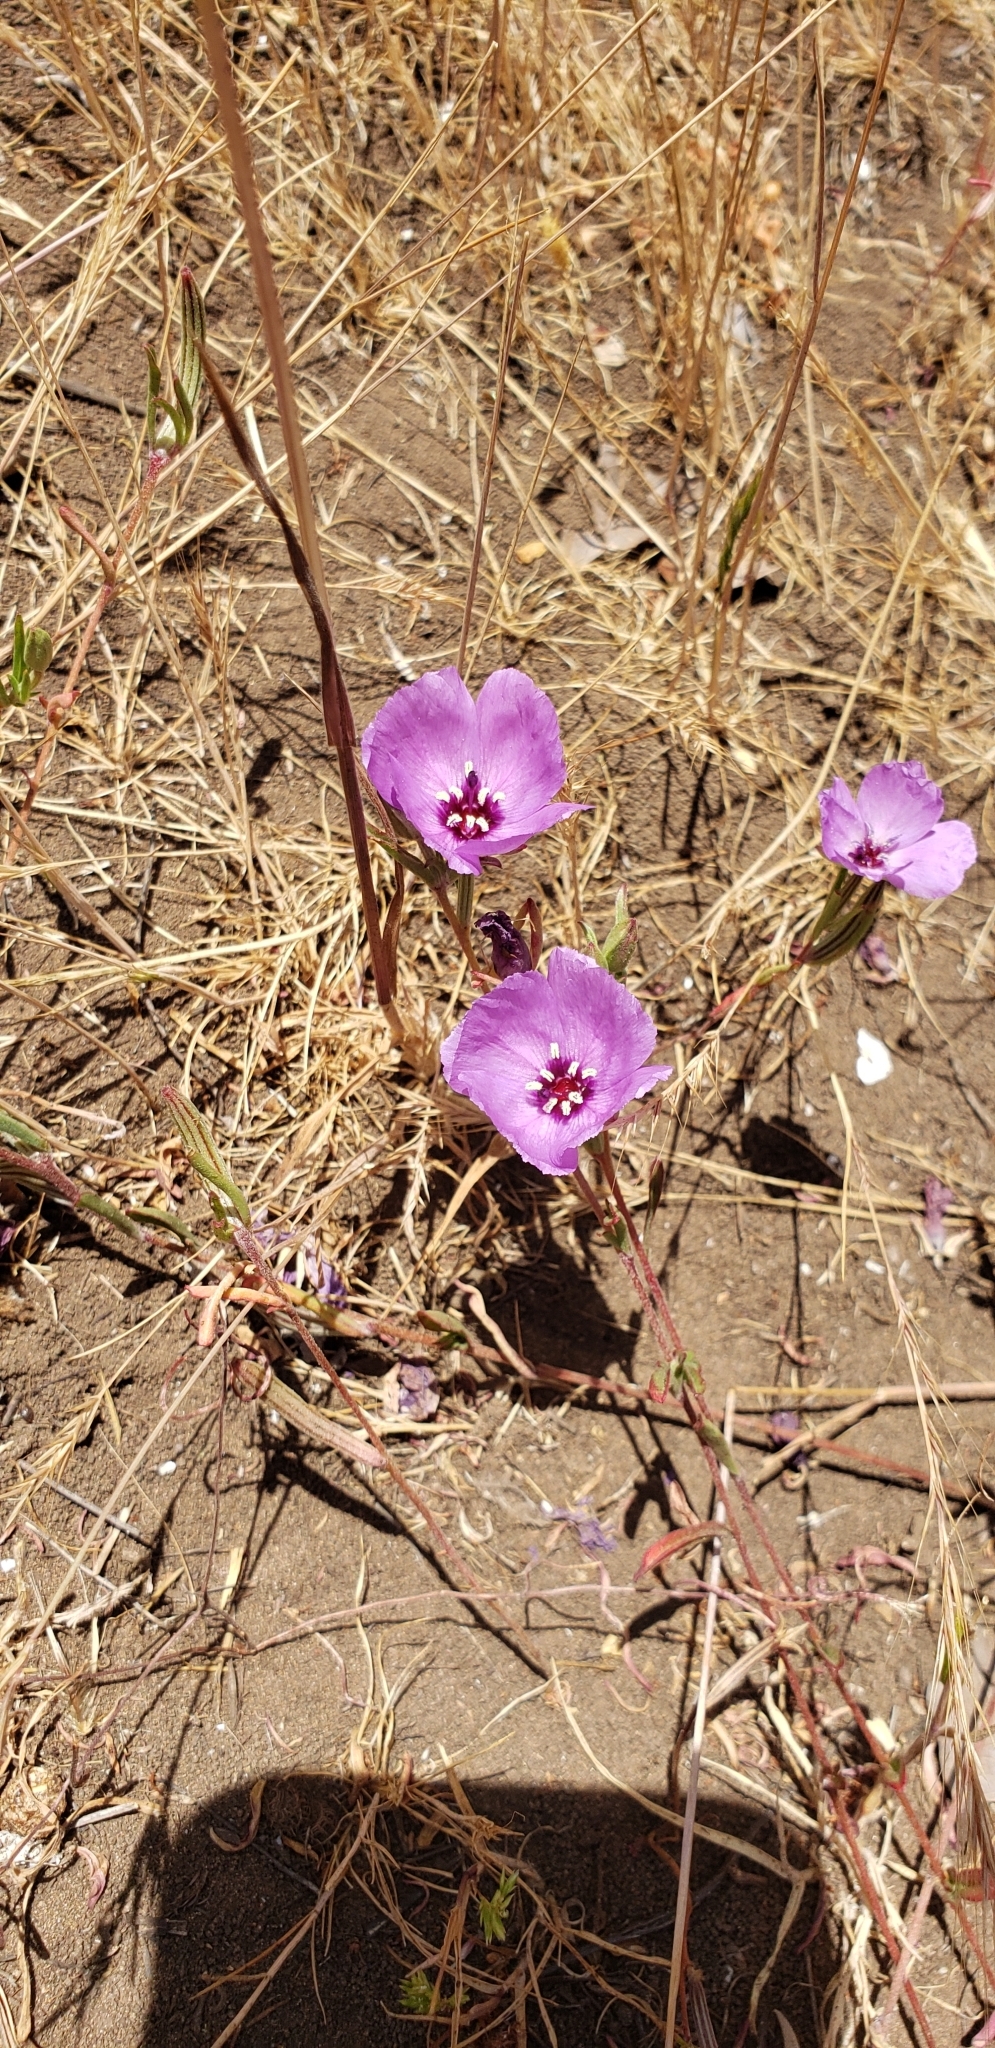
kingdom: Plantae
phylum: Tracheophyta
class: Magnoliopsida
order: Myrtales
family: Onagraceae
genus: Clarkia
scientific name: Clarkia tenella
